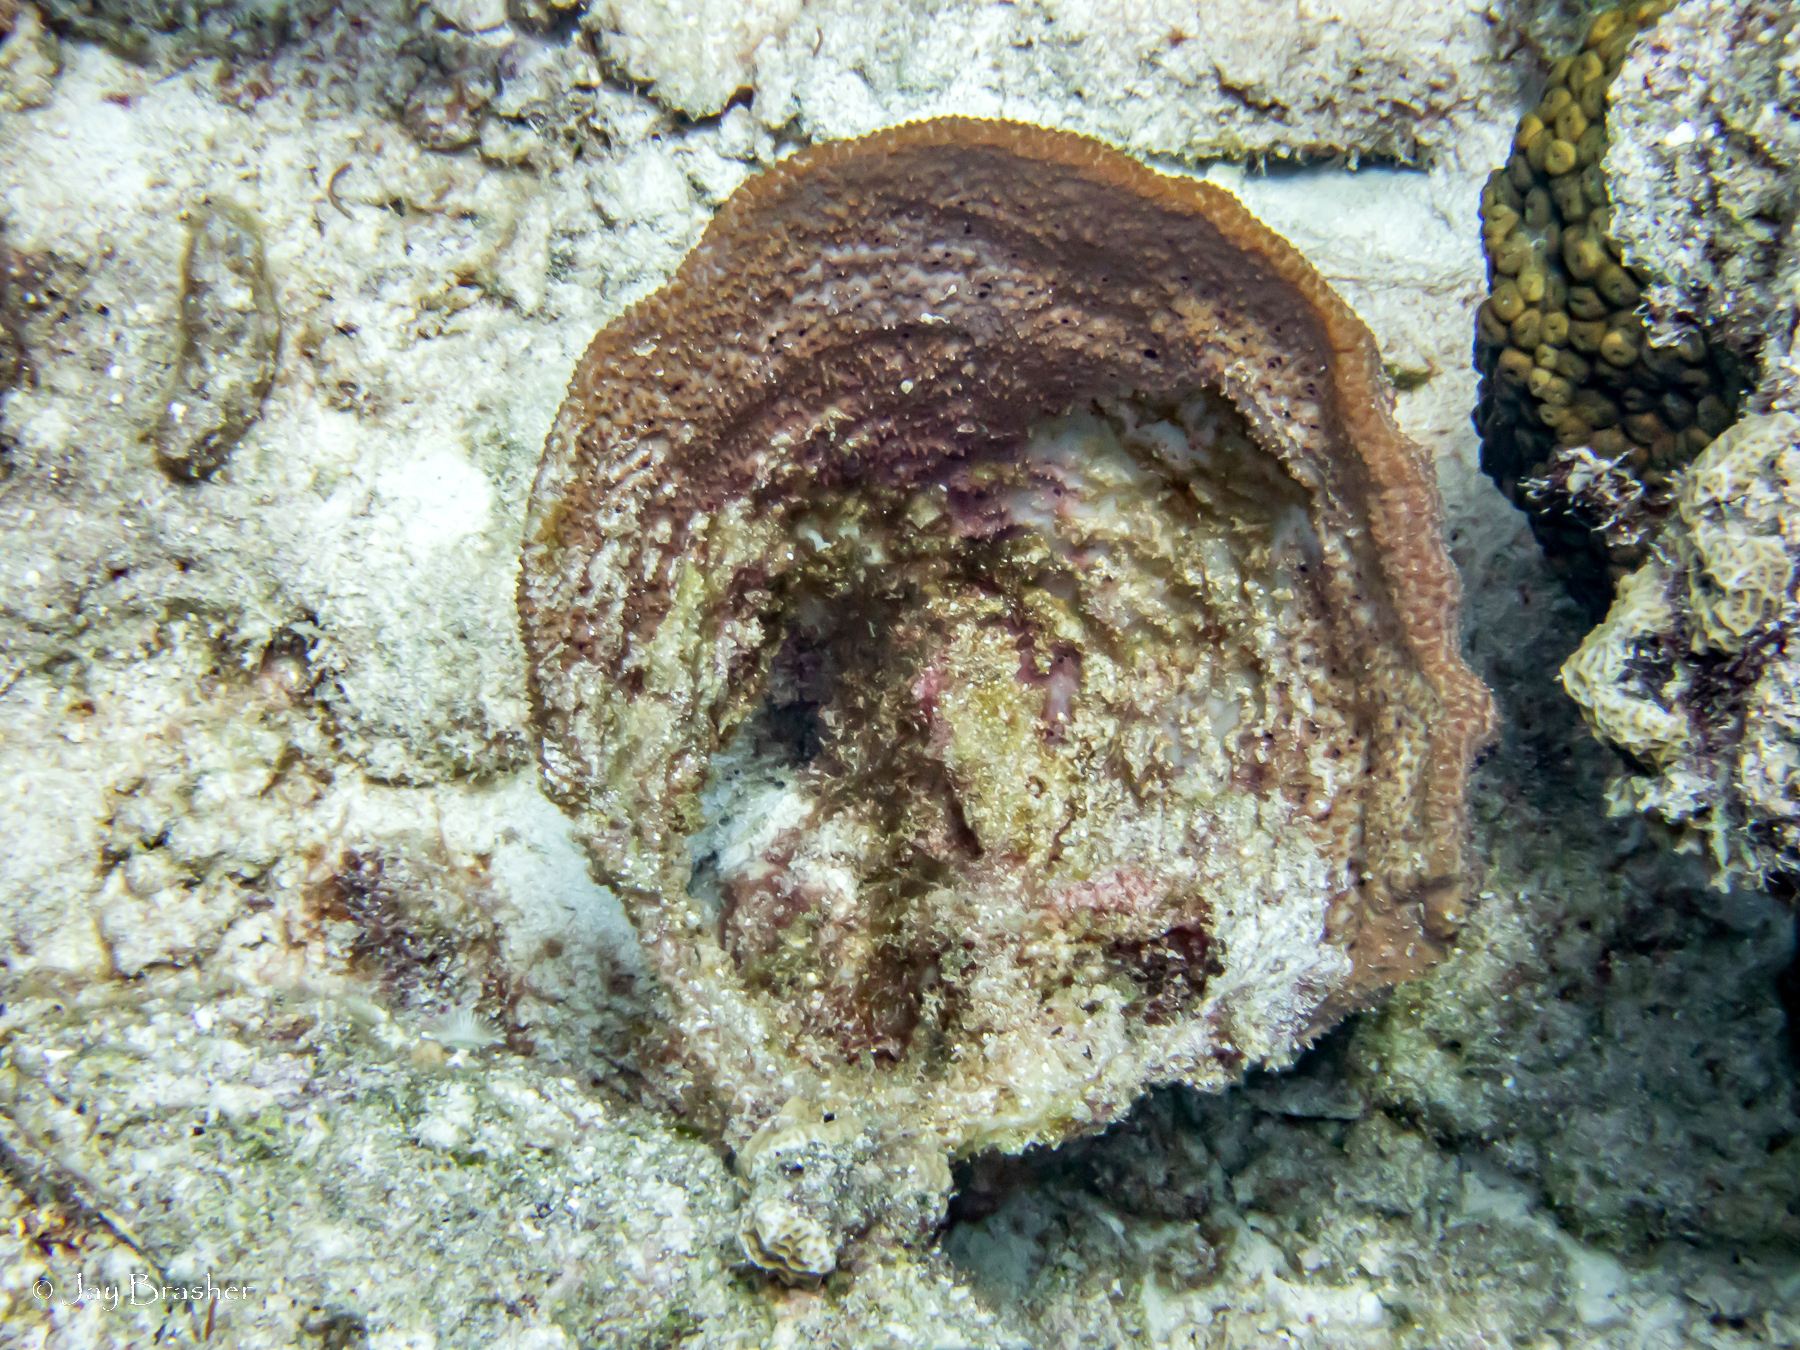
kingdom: Animalia
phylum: Porifera
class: Demospongiae
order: Dictyoceratida
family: Irciniidae
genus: Ircinia
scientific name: Ircinia campana
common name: Vase sponge
